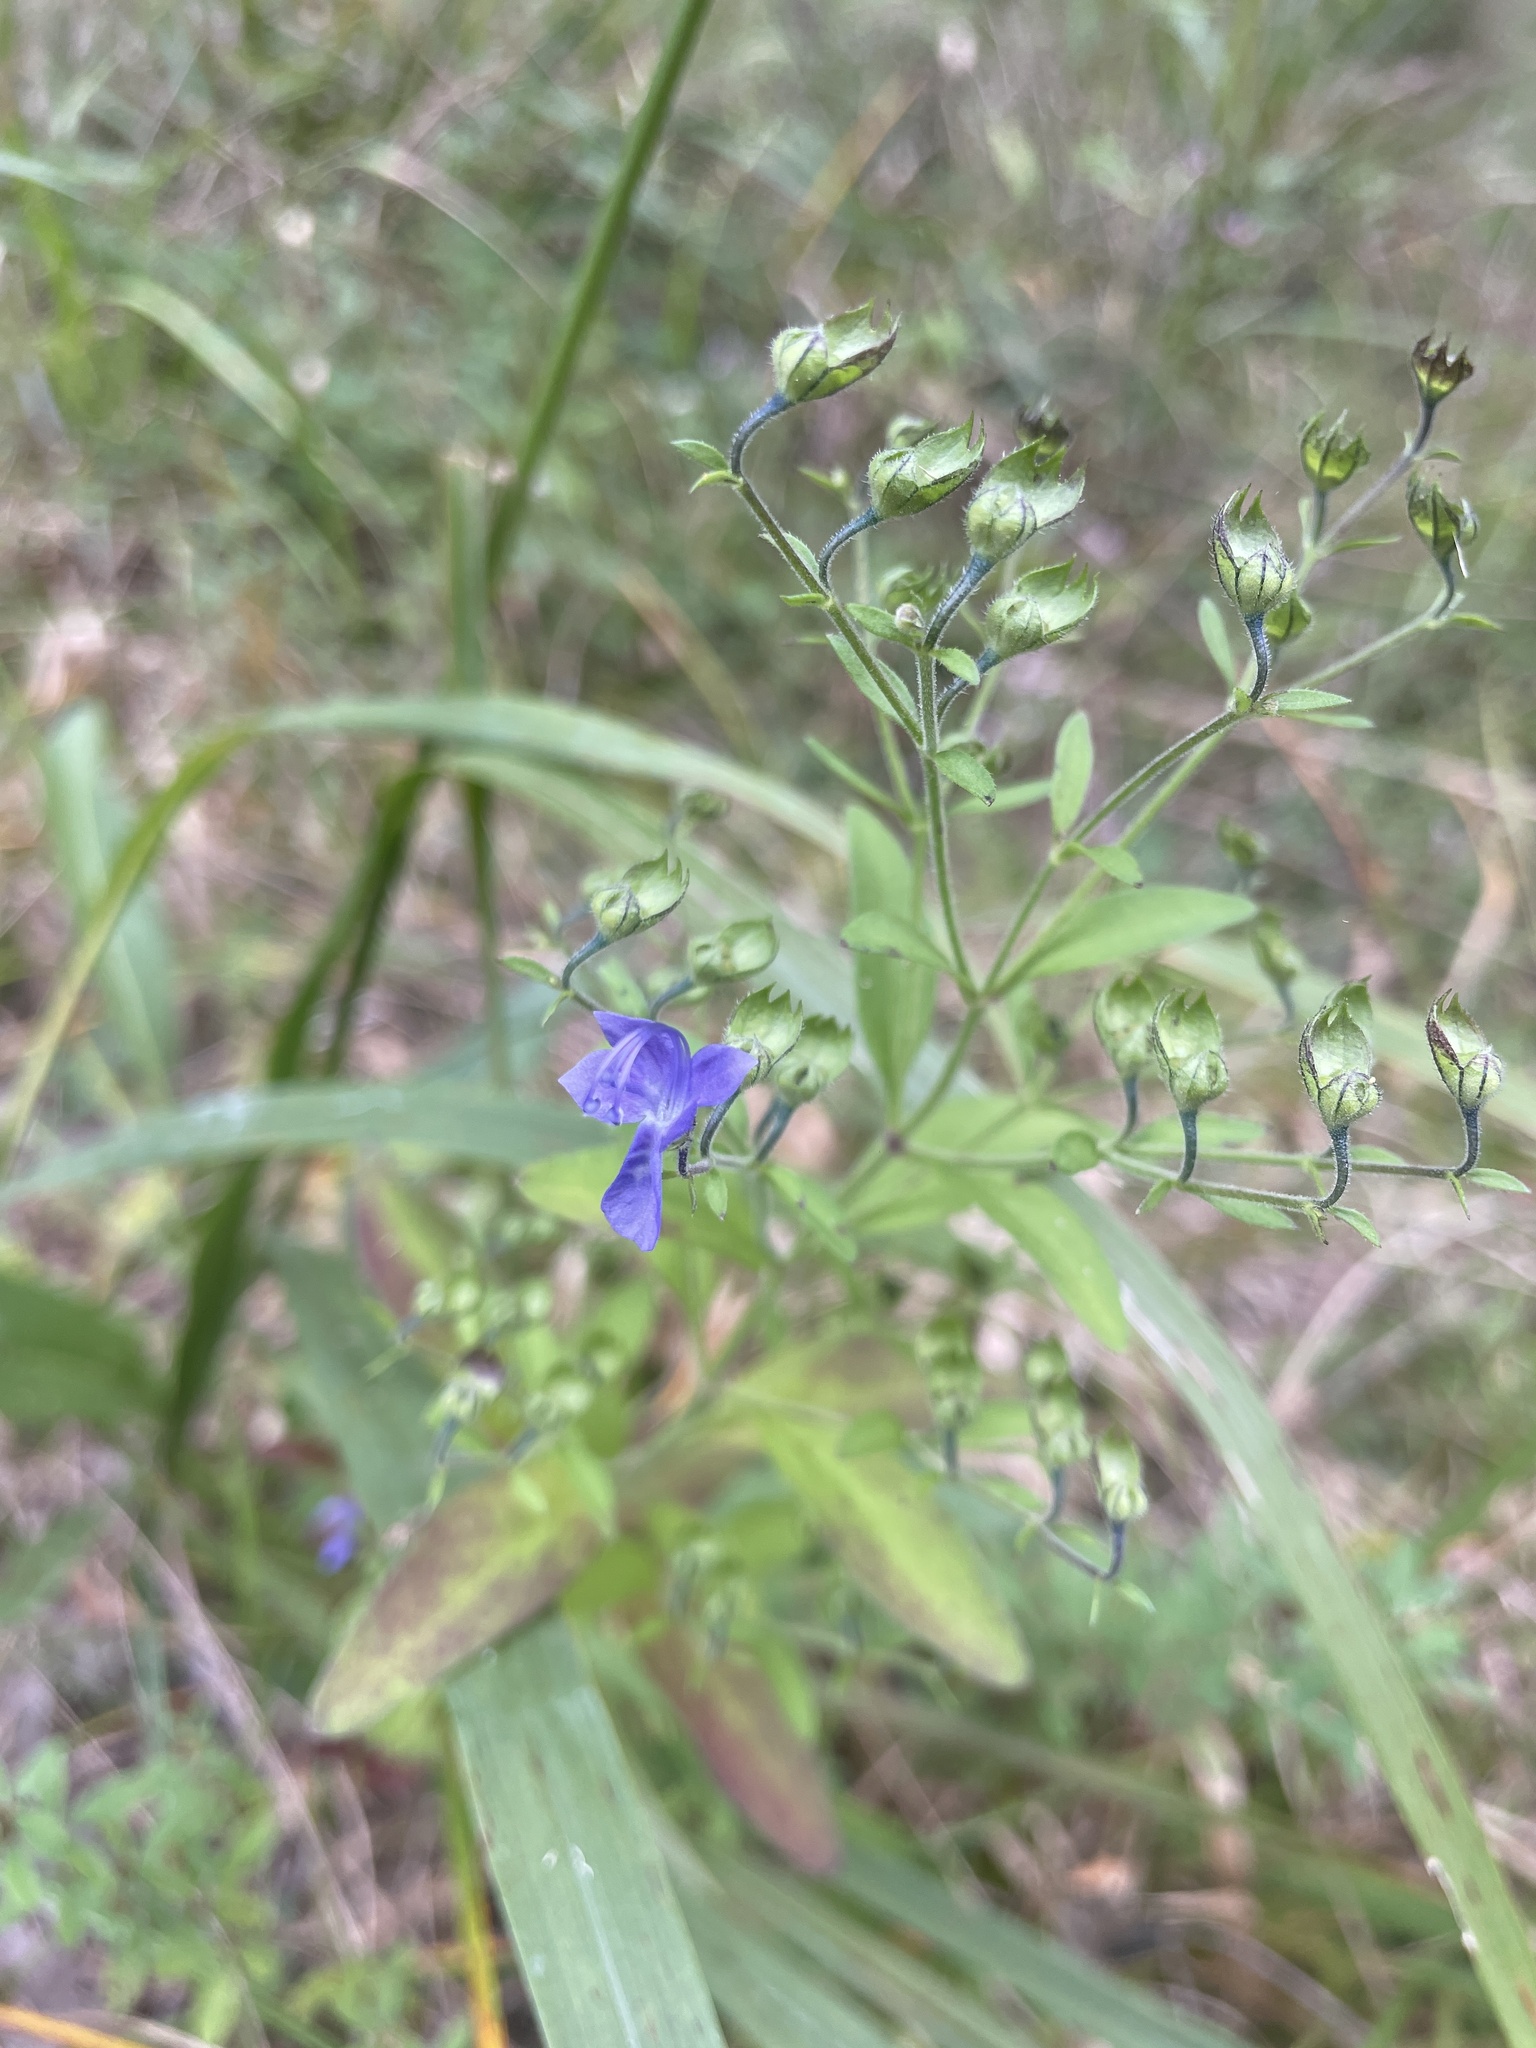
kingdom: Plantae
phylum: Tracheophyta
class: Magnoliopsida
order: Lamiales
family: Lamiaceae
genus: Trichostema
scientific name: Trichostema dichotomum
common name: Bastard pennyroyal
